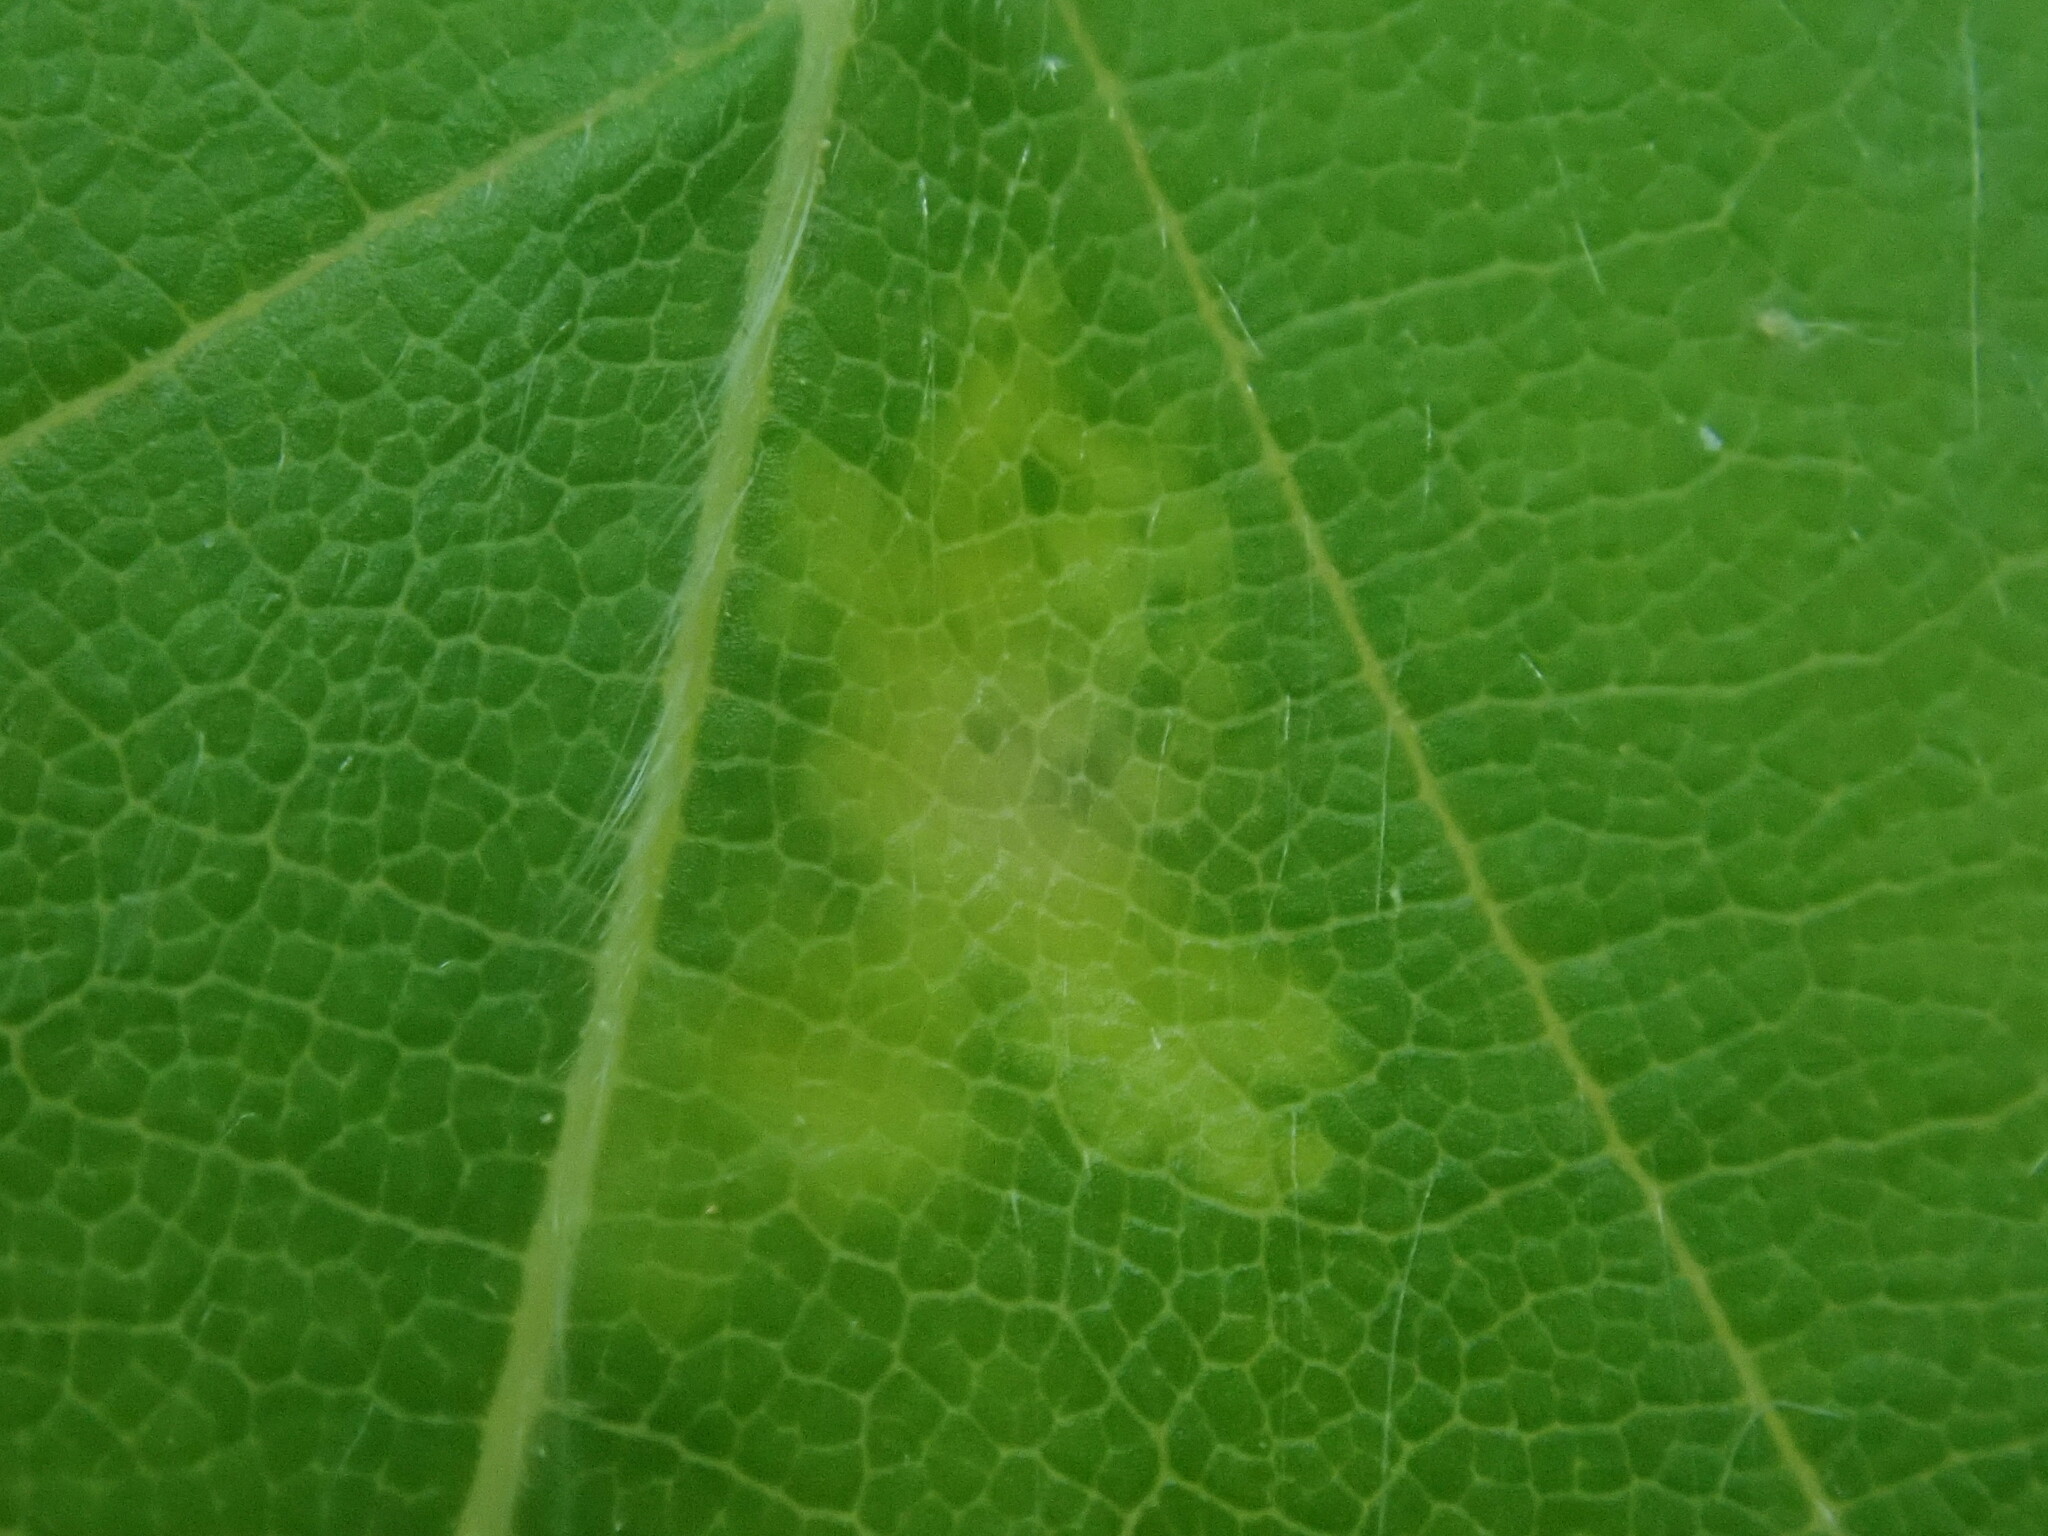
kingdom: Animalia
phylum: Arthropoda
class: Arachnida
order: Trombidiformes
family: Eriophyidae
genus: Acalitus
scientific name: Acalitus
